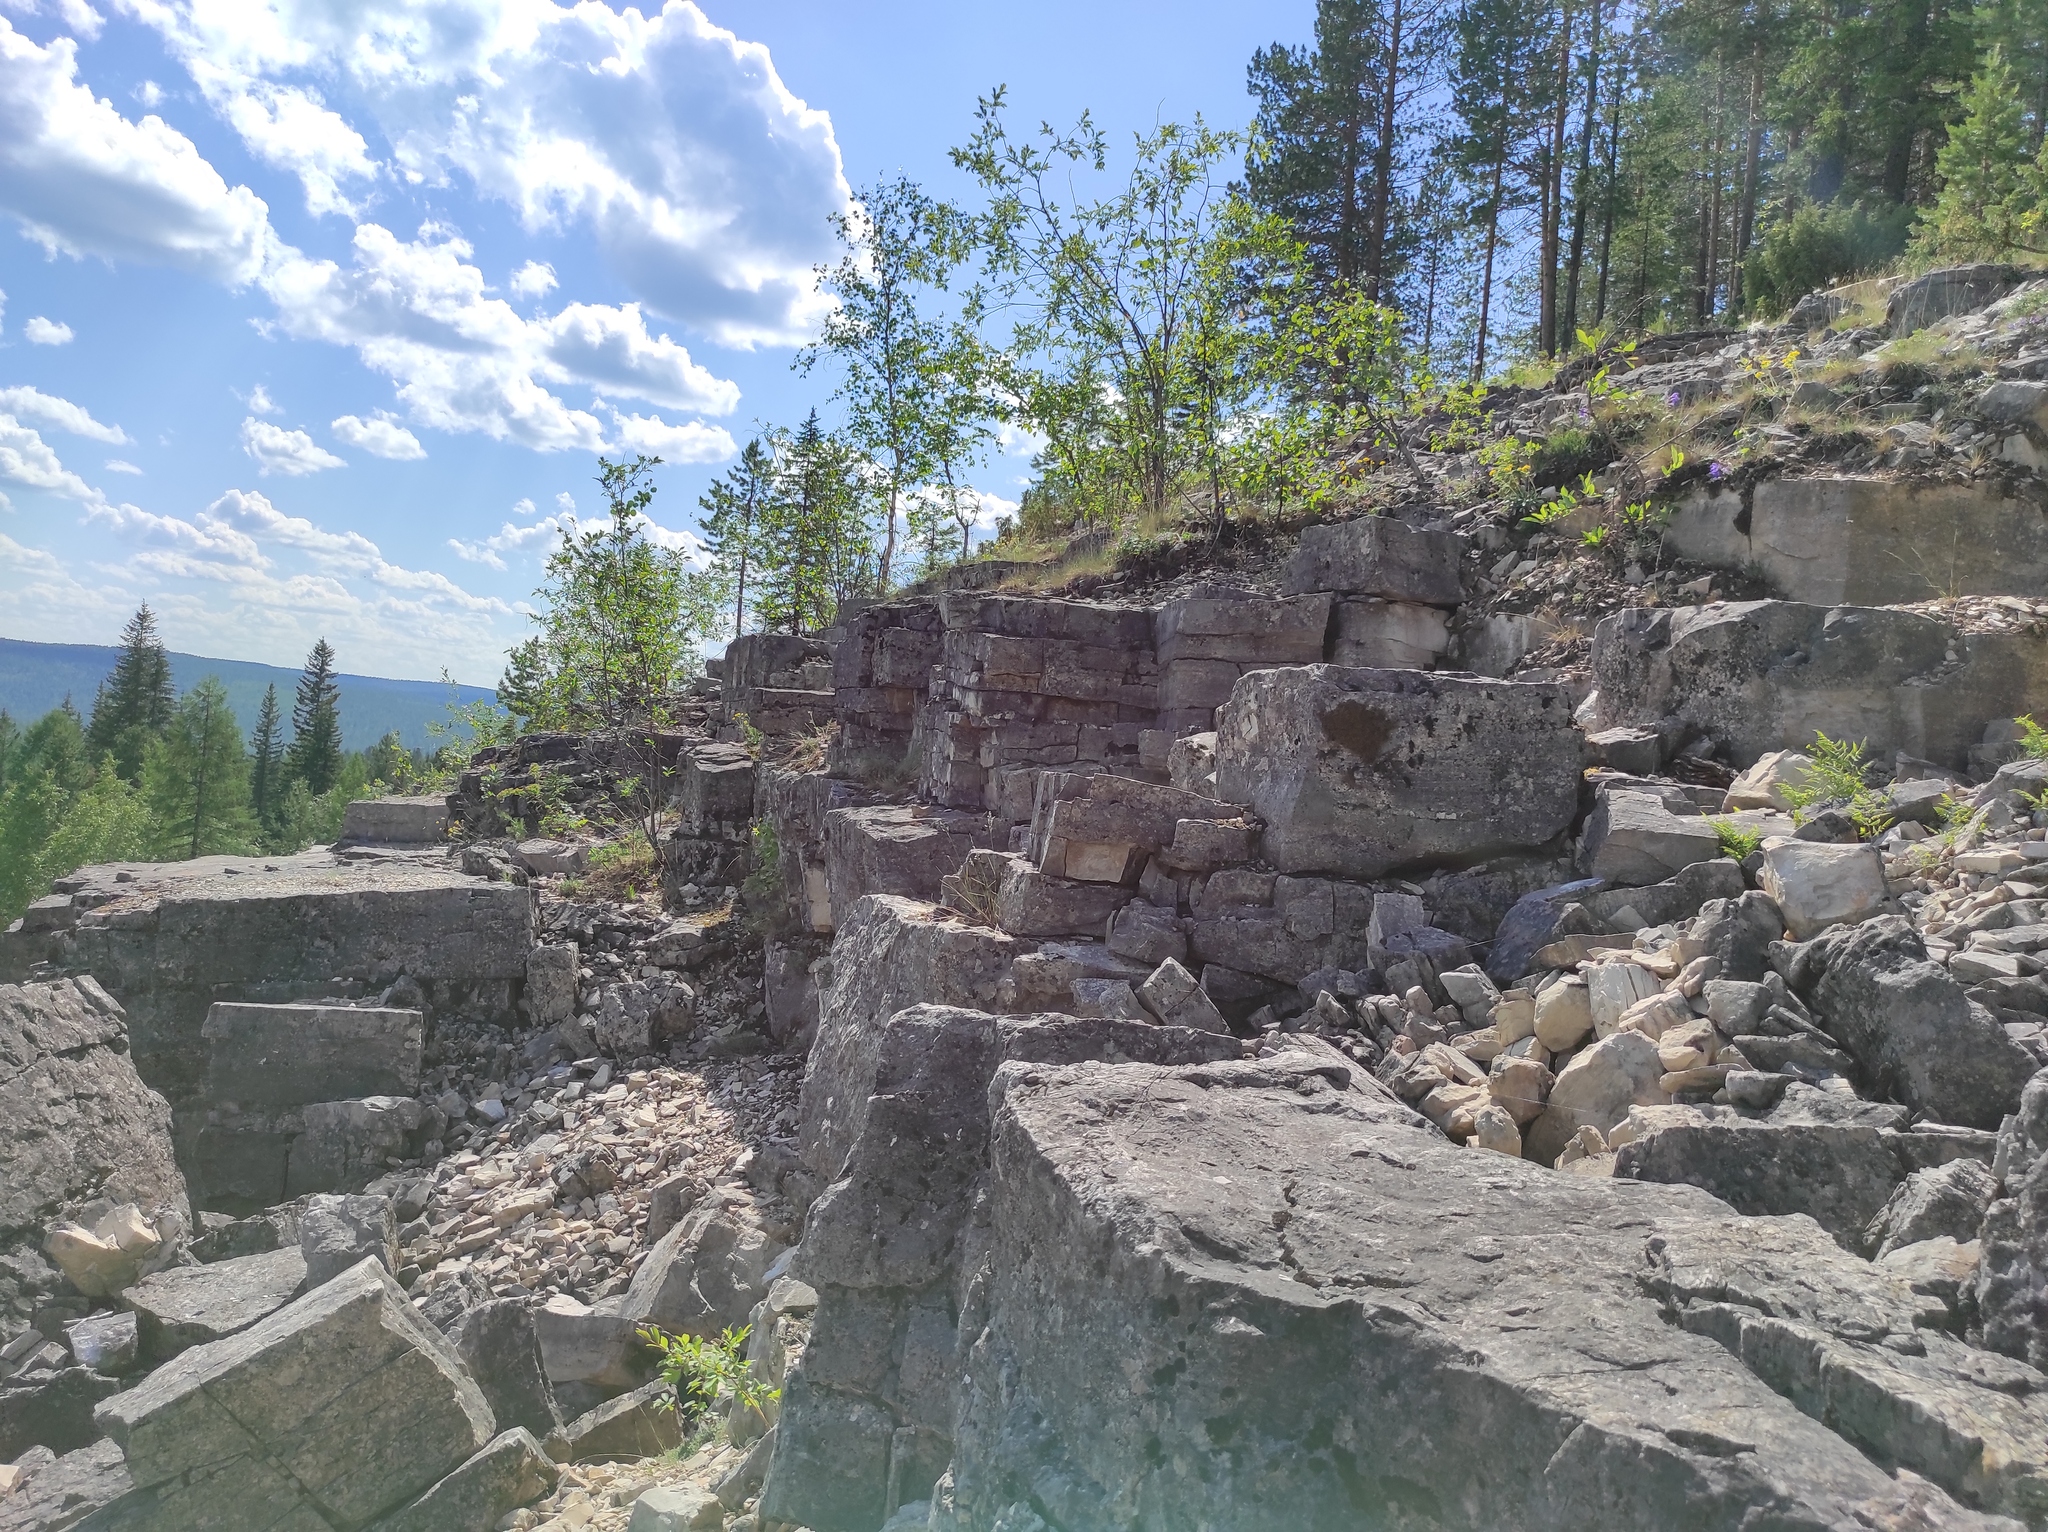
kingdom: Plantae
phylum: Tracheophyta
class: Pinopsida
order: Pinales
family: Pinaceae
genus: Pinus
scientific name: Pinus sylvestris
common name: Scots pine
